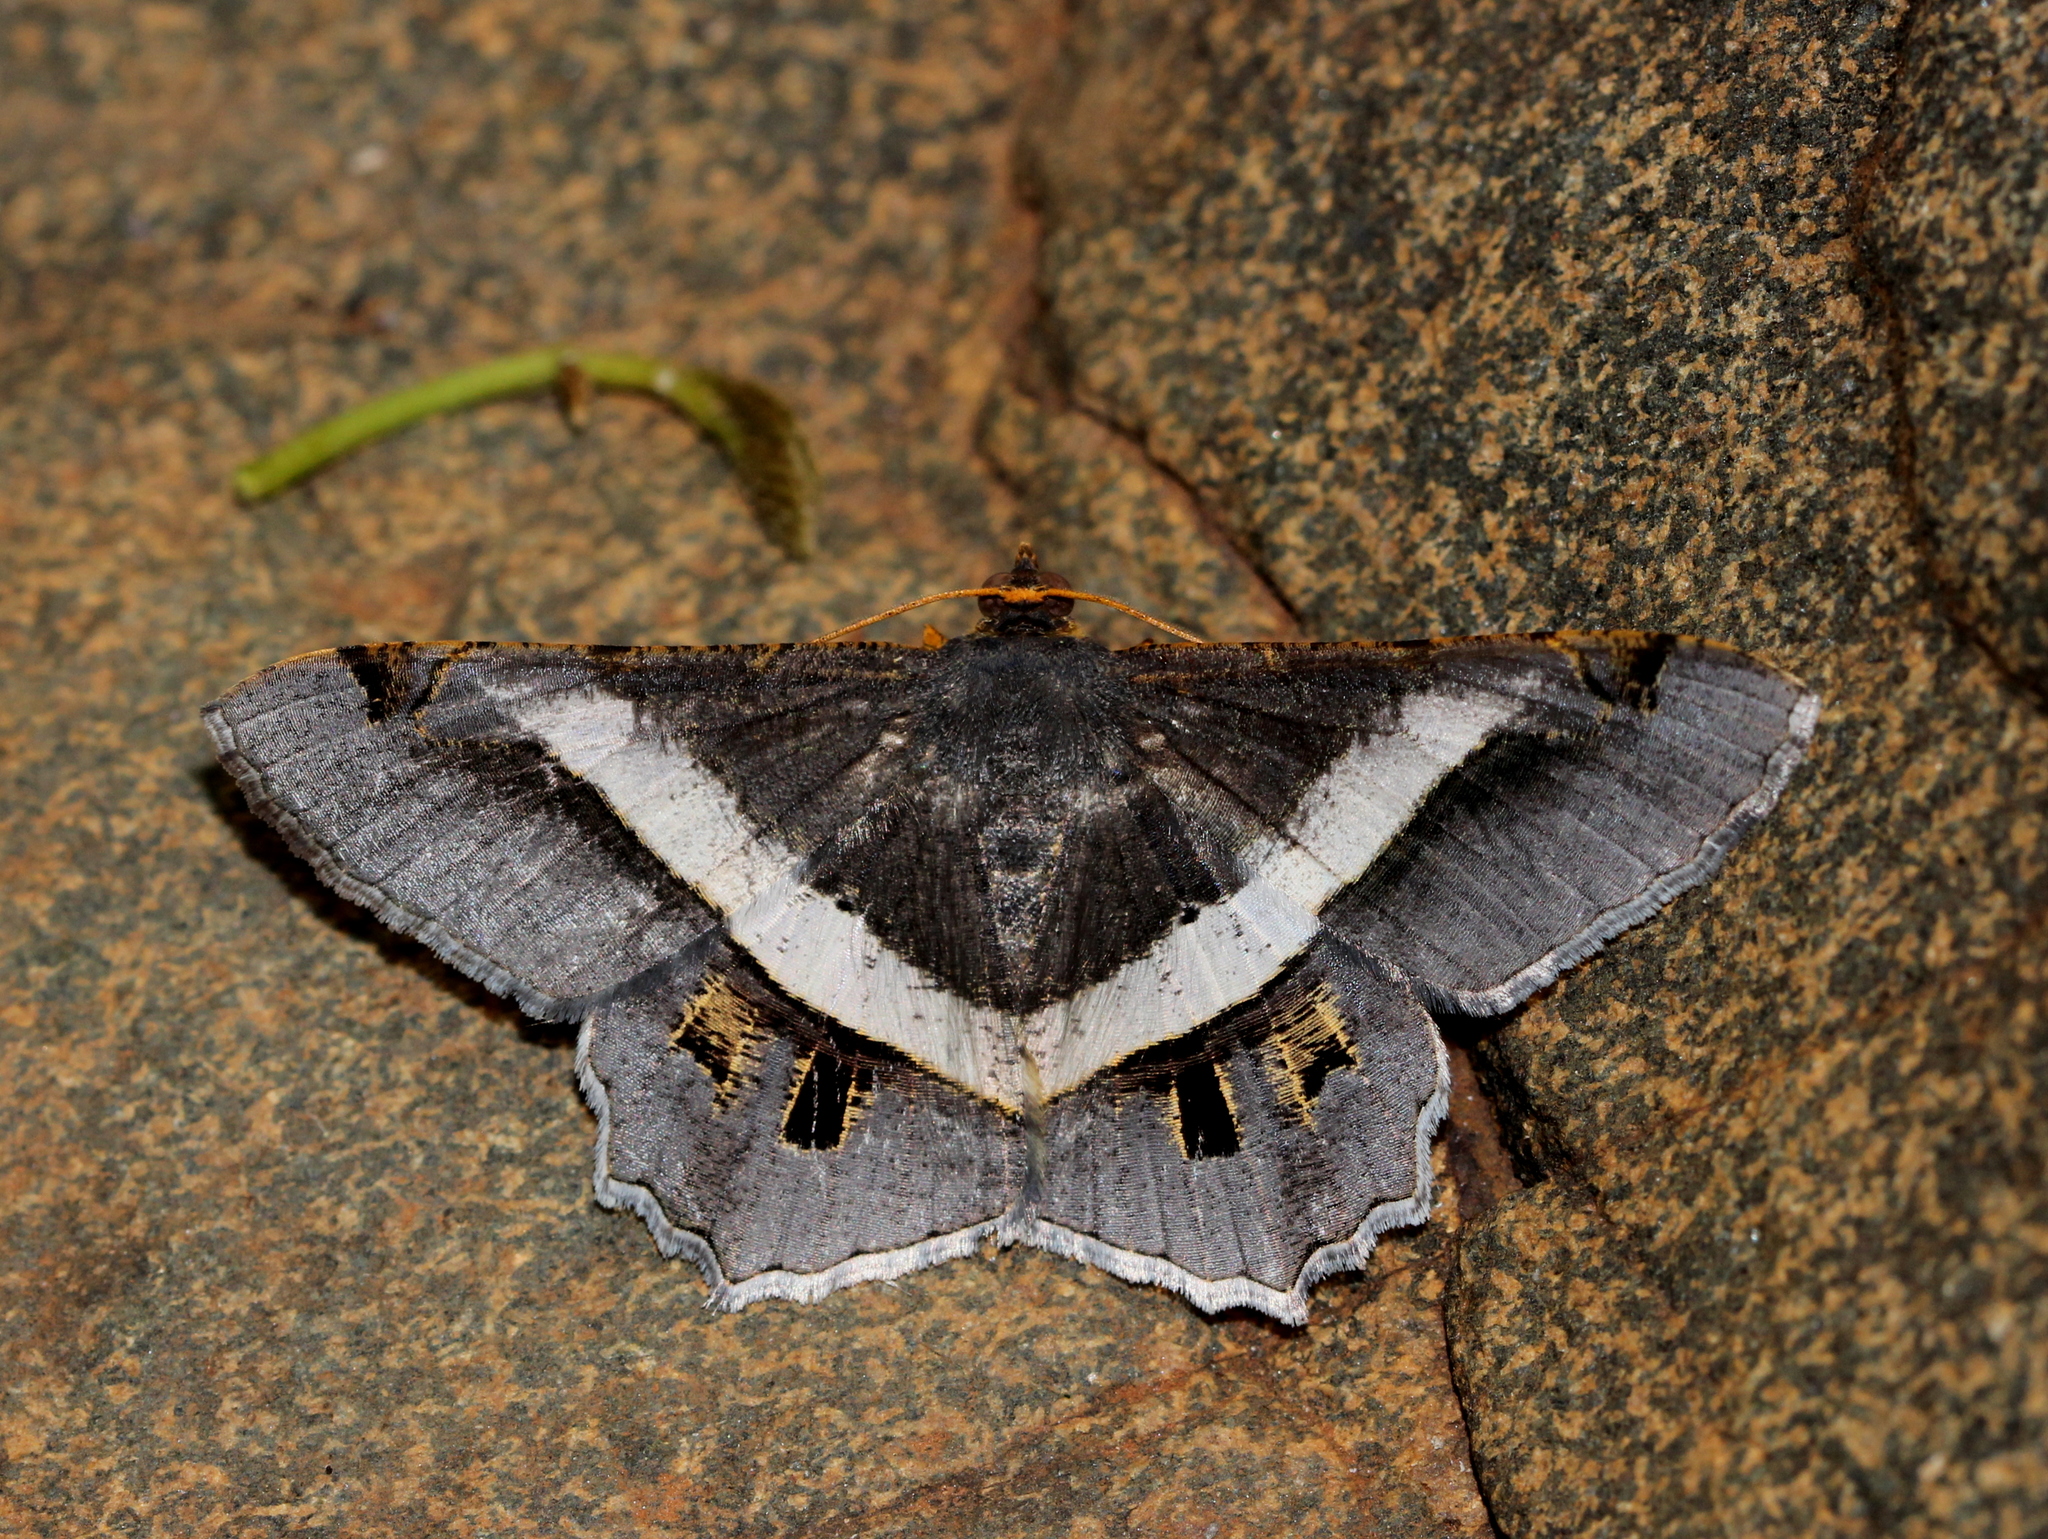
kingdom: Animalia
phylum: Arthropoda
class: Insecta
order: Lepidoptera
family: Geometridae
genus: Chiasmia
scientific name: Chiasmia eleonora
